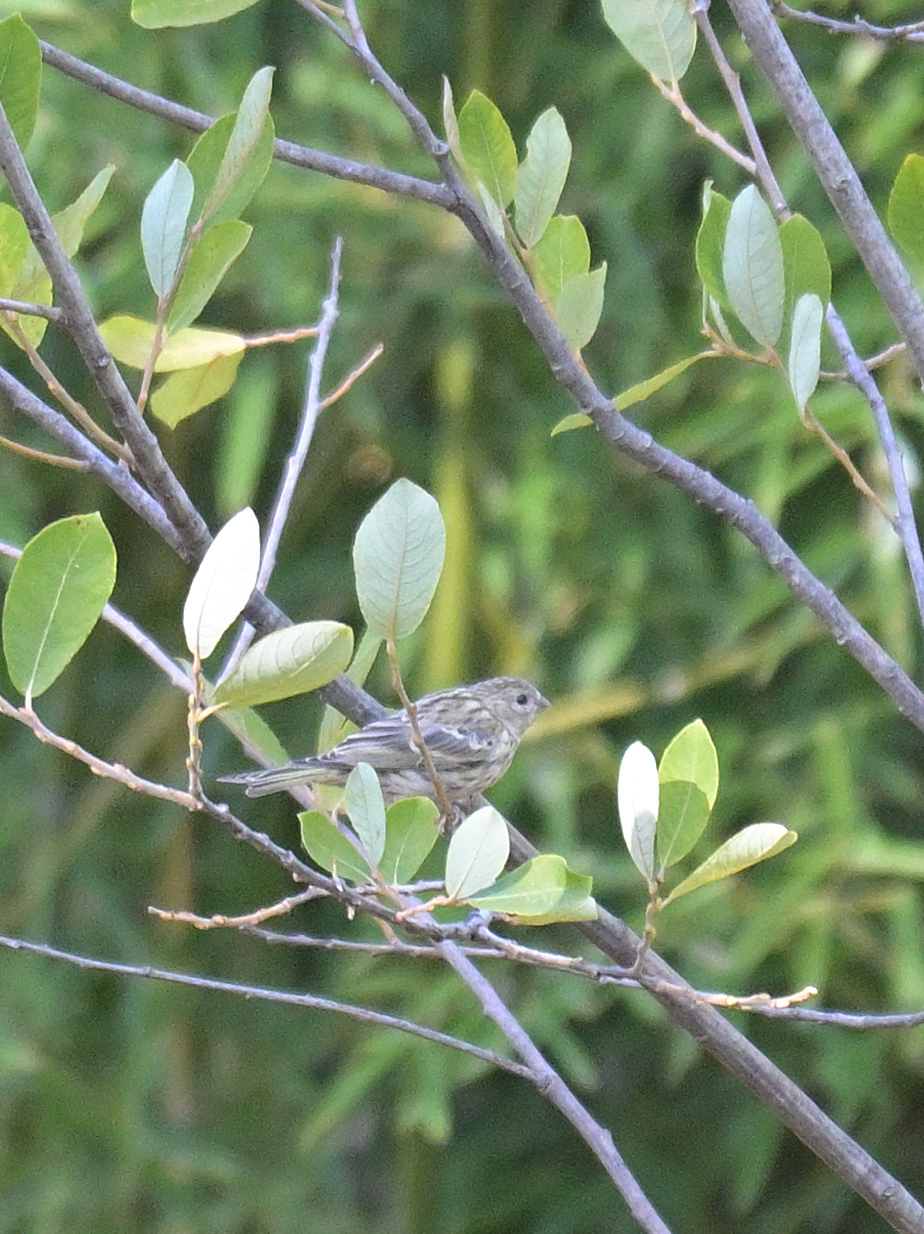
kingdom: Animalia
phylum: Chordata
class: Aves
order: Passeriformes
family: Fringillidae
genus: Serinus
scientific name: Serinus serinus
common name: European serin
